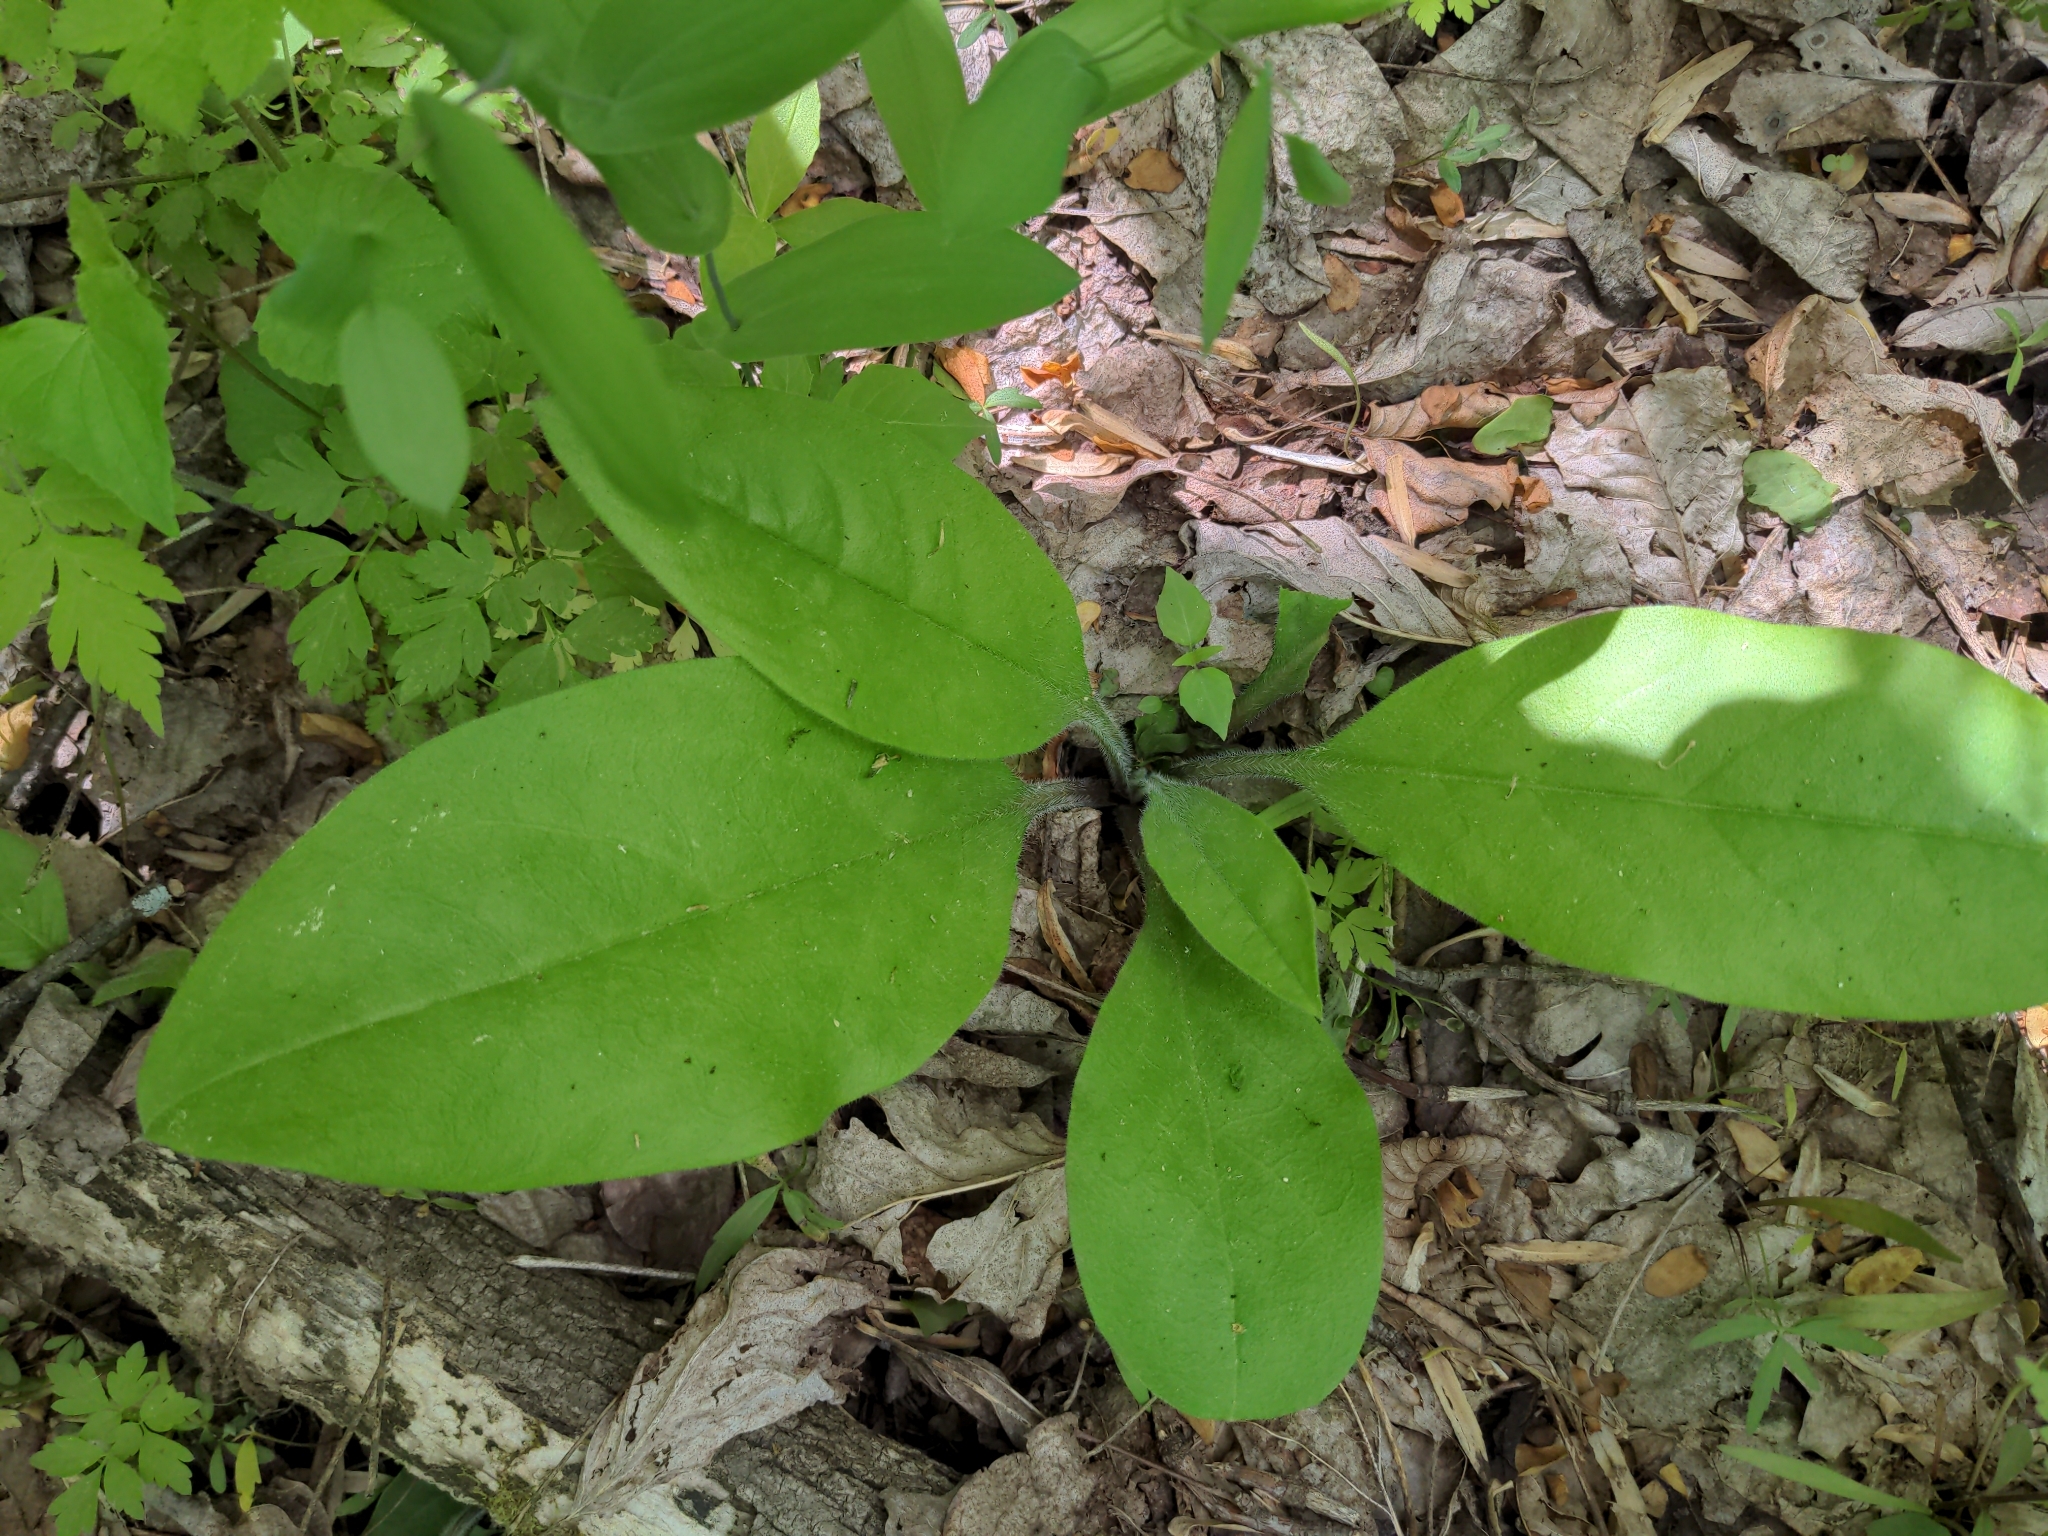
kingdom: Plantae
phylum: Tracheophyta
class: Magnoliopsida
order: Boraginales
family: Boraginaceae
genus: Andersonglossum
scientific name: Andersonglossum virginianum
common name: Wild comfrey
